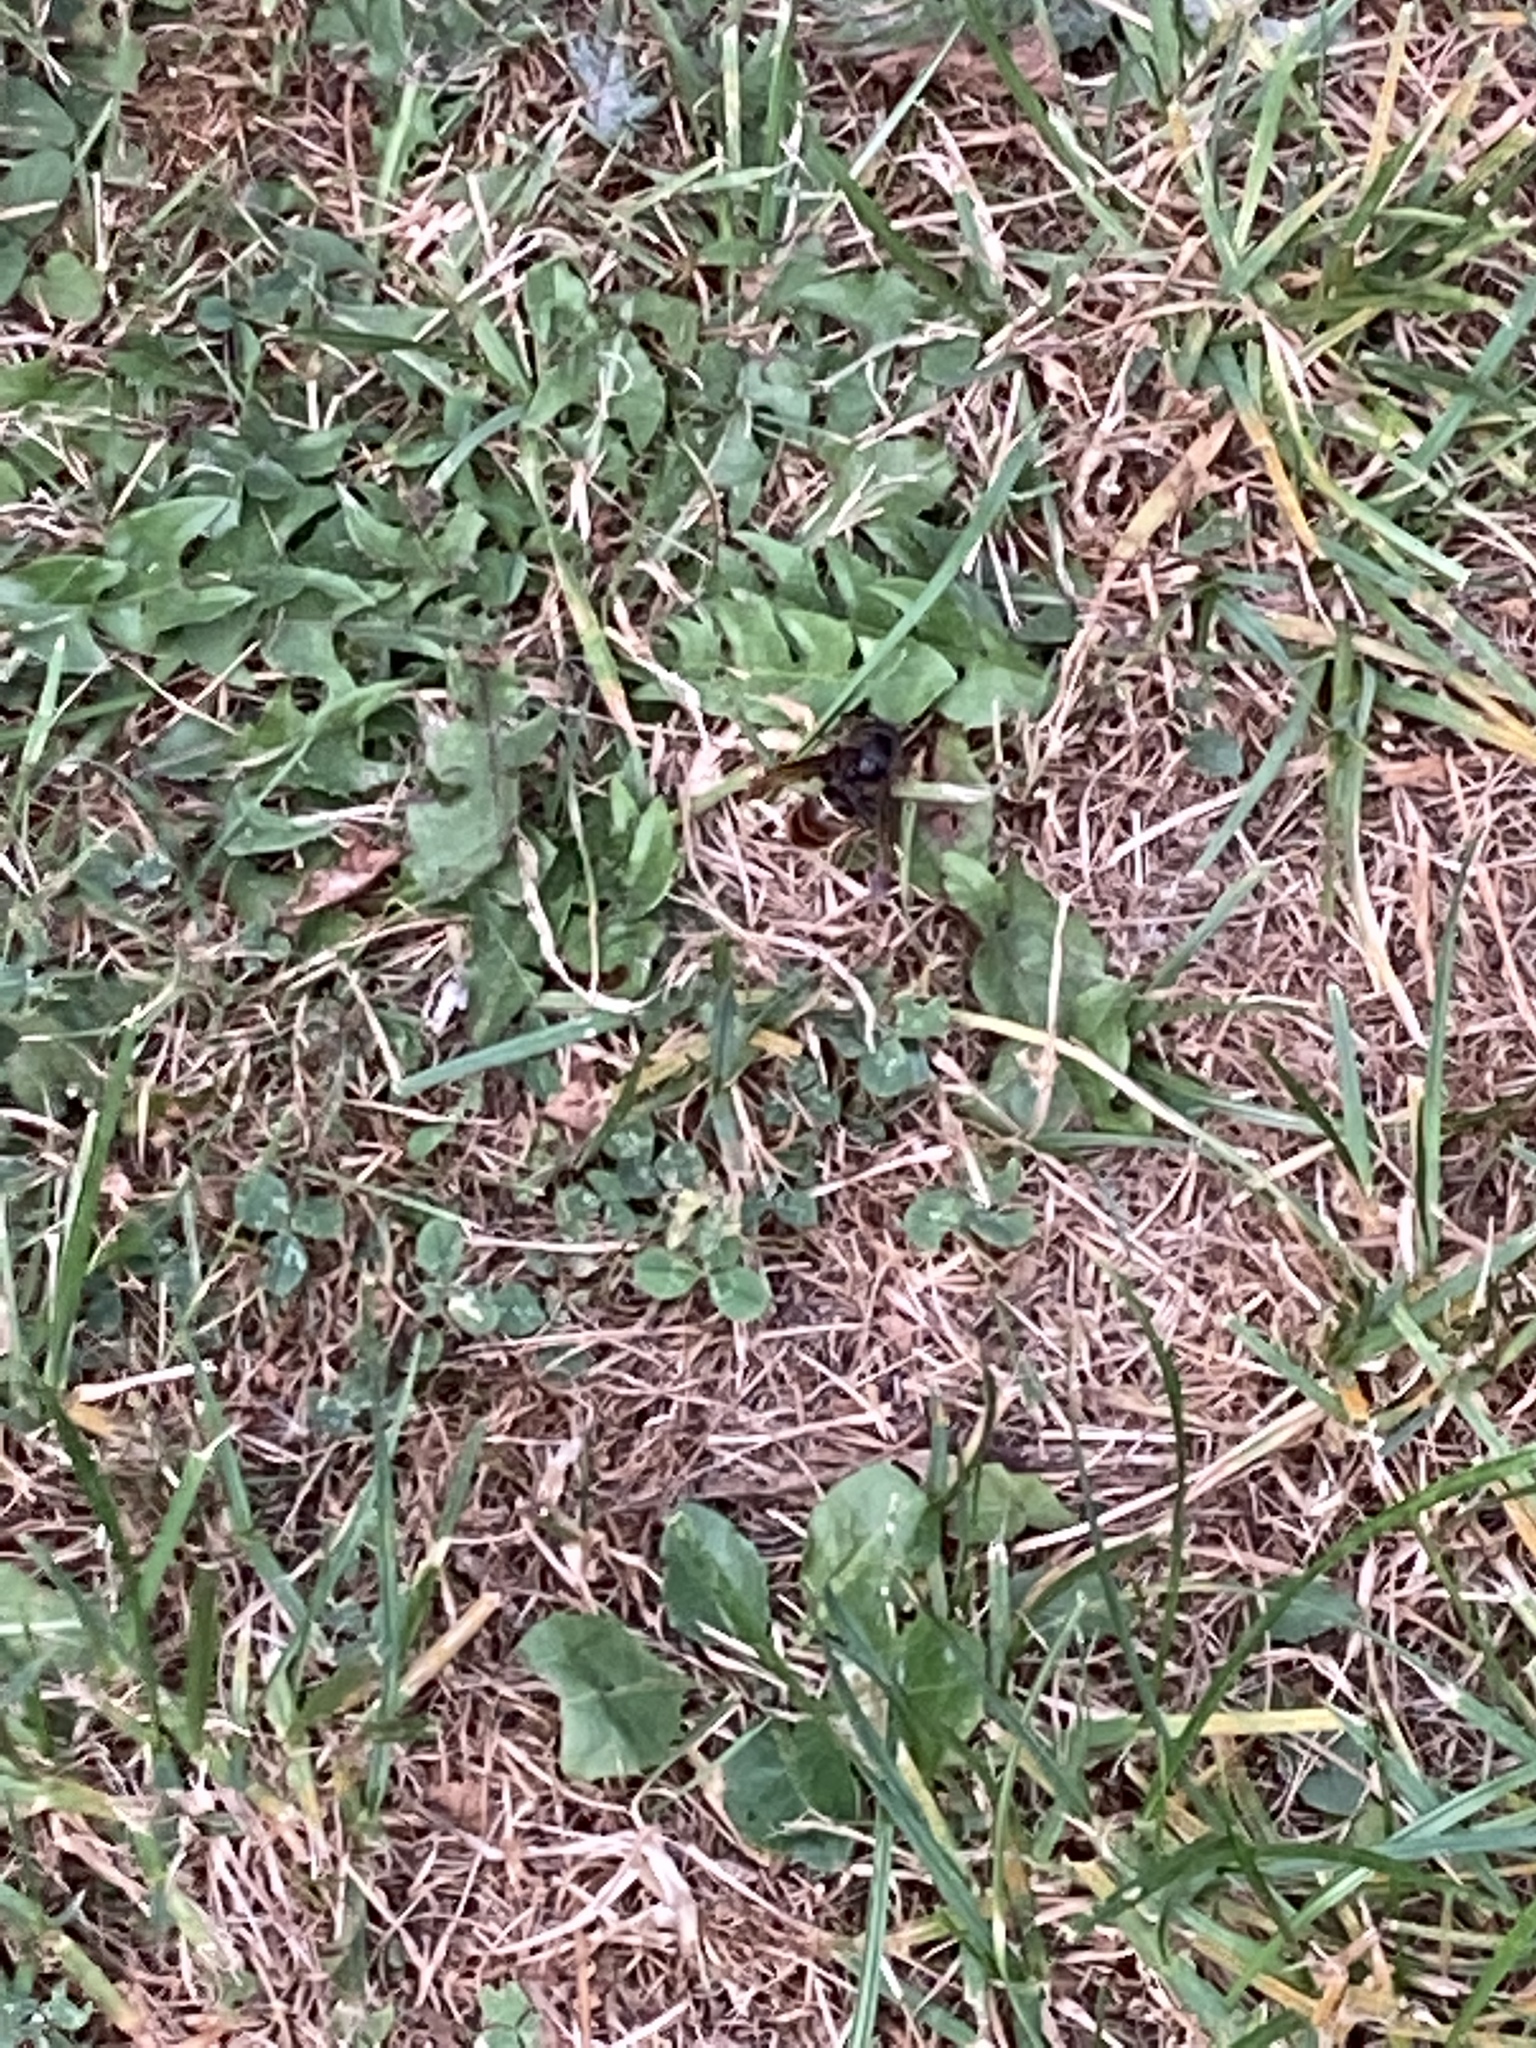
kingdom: Animalia
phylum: Arthropoda
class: Insecta
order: Hymenoptera
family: Vespidae
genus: Vespa
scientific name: Vespa velutina
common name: Asian hornet
